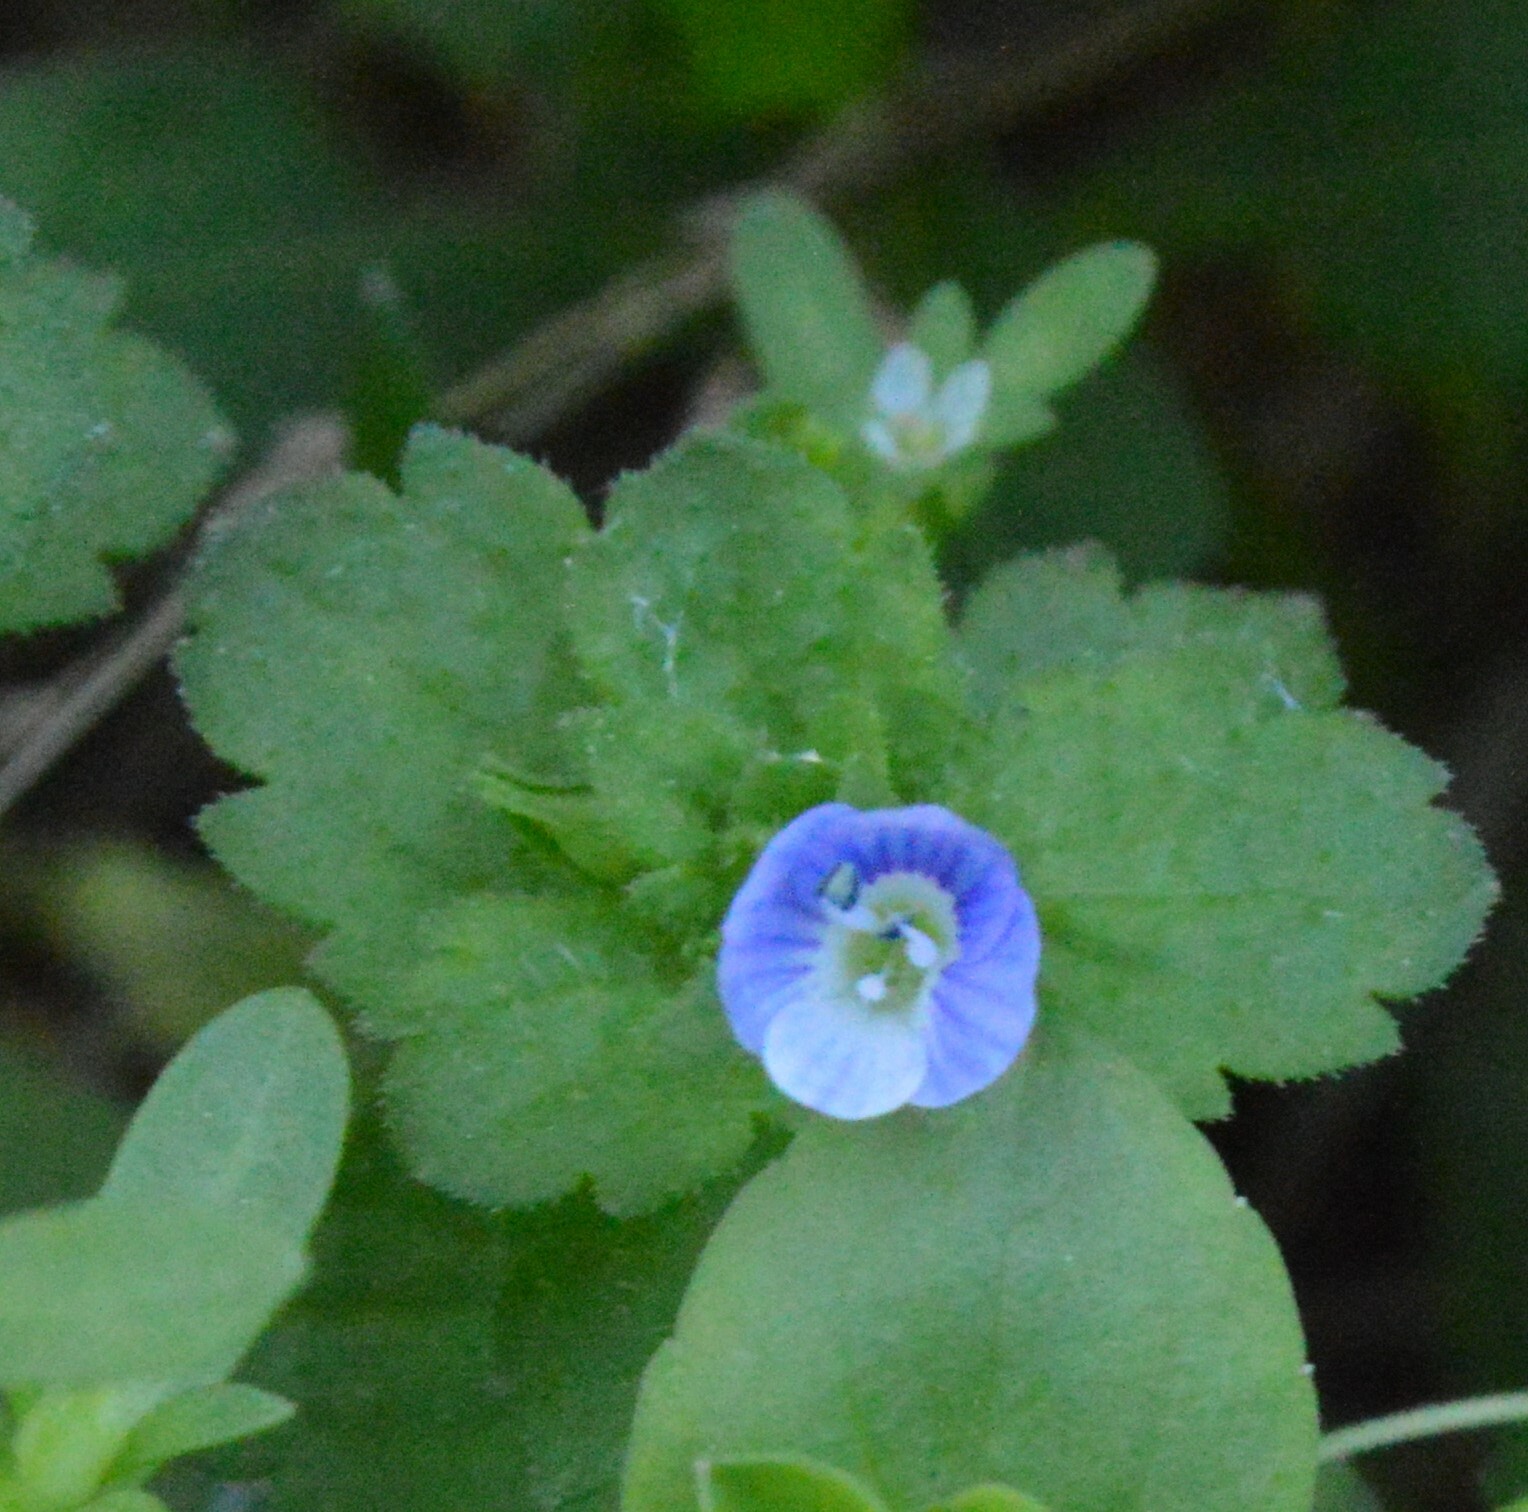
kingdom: Plantae
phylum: Tracheophyta
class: Magnoliopsida
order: Lamiales
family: Plantaginaceae
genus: Veronica
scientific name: Veronica persica
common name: Common field-speedwell
